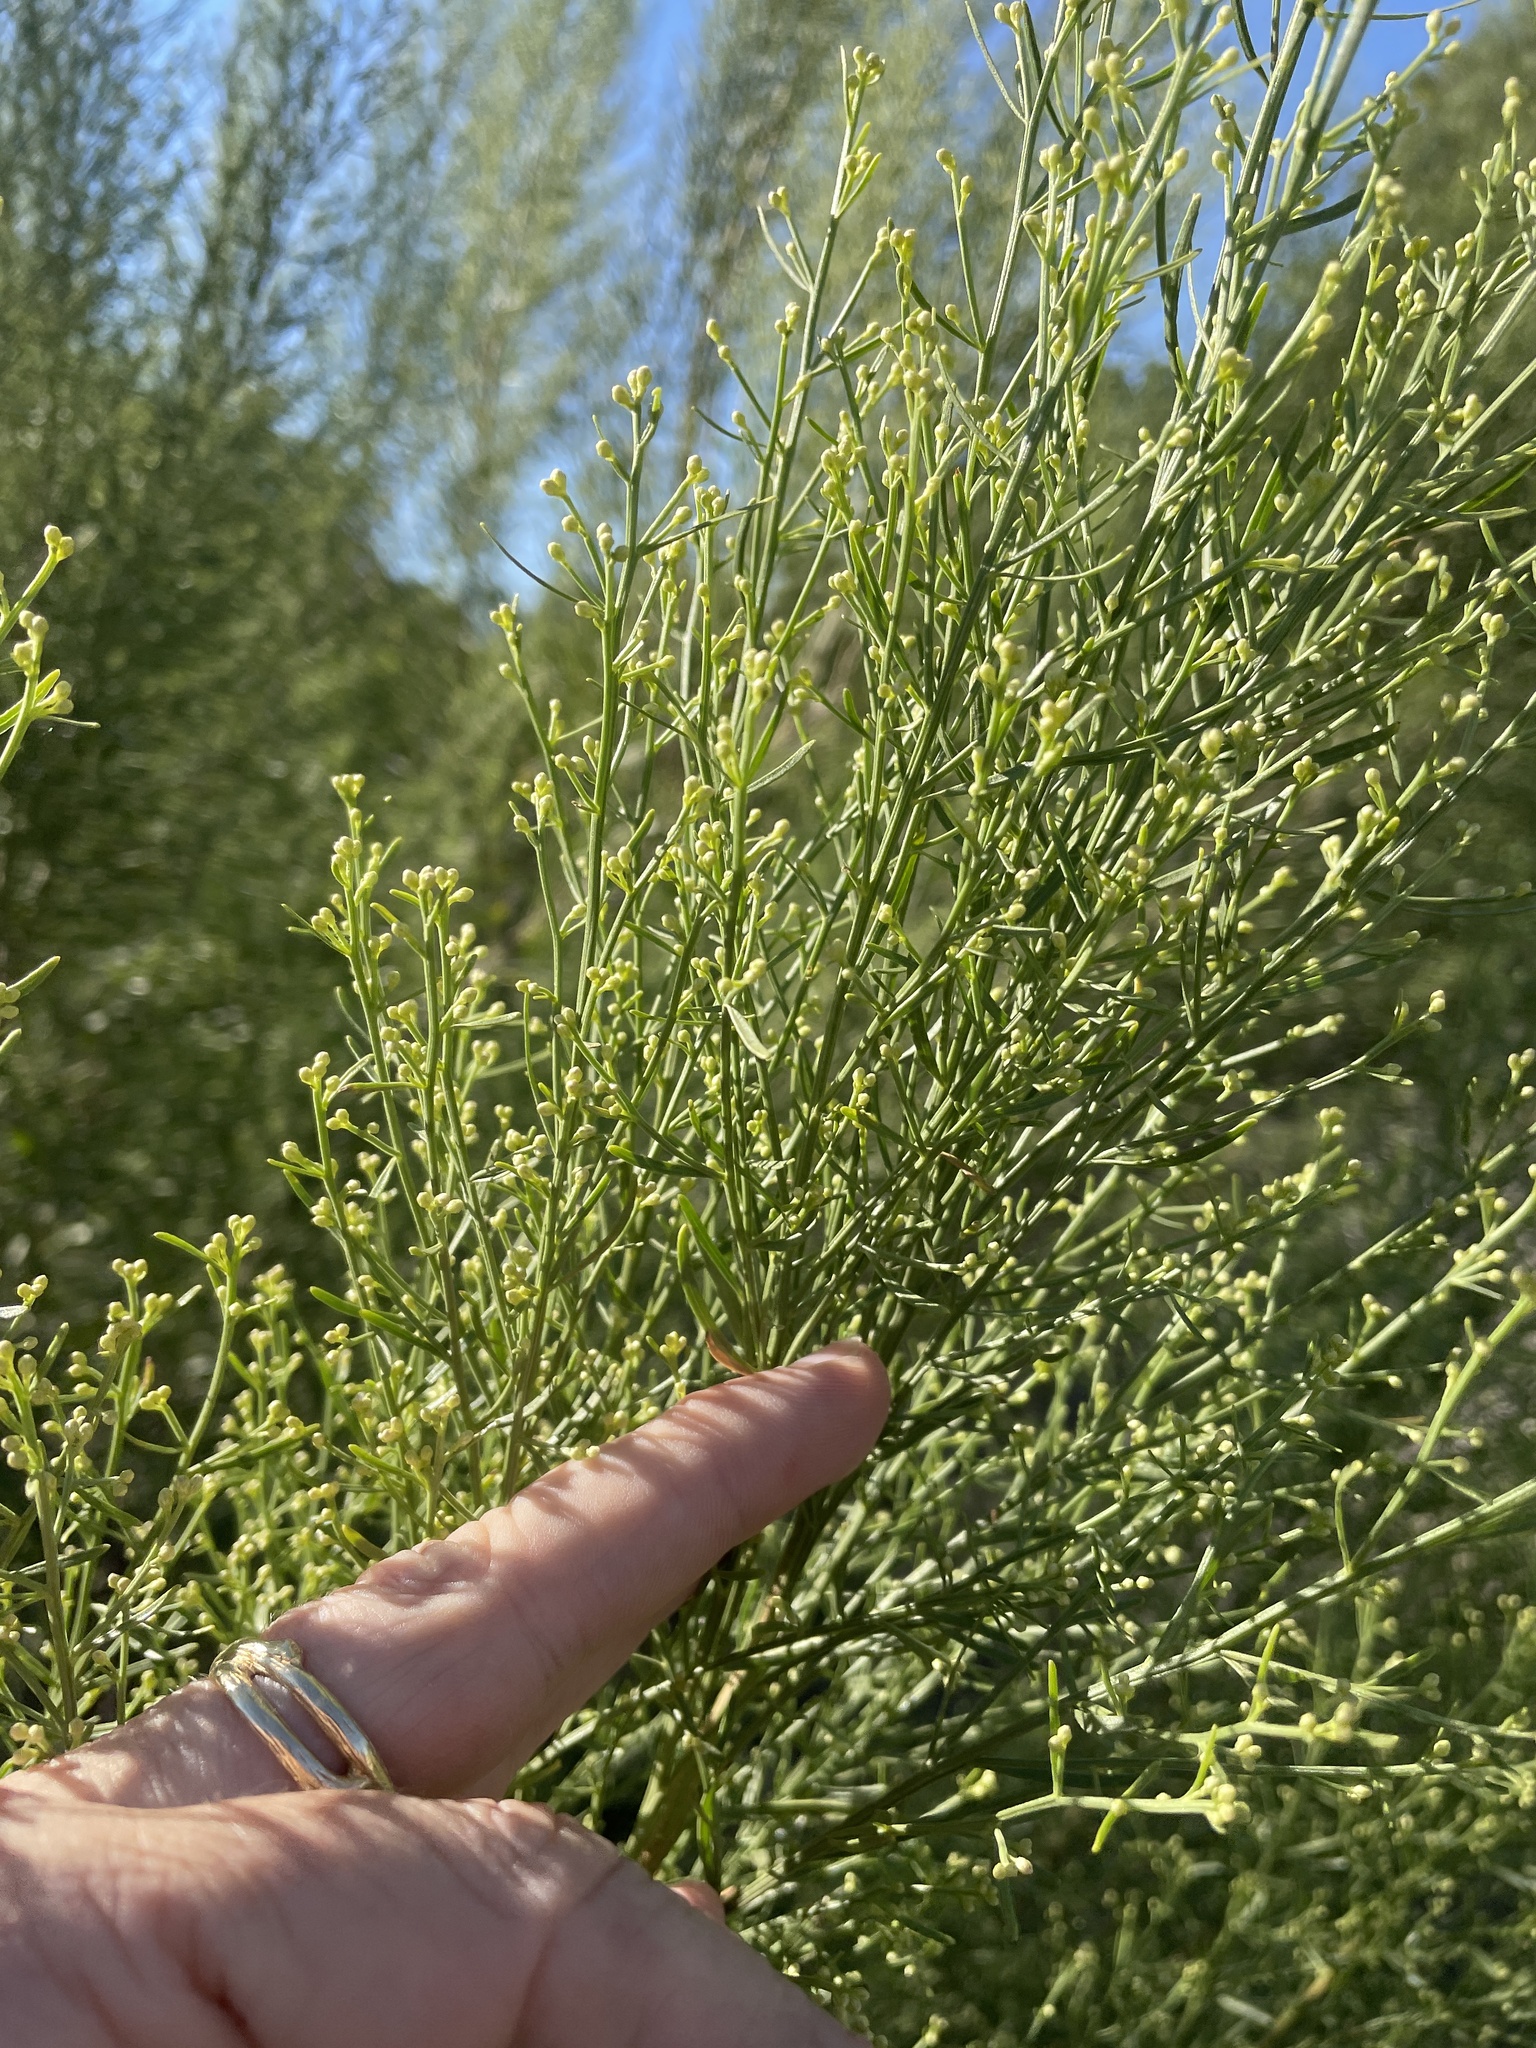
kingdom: Plantae
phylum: Tracheophyta
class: Magnoliopsida
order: Asterales
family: Asteraceae
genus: Baccharis
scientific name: Baccharis neglecta
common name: Roosevelt-weed
